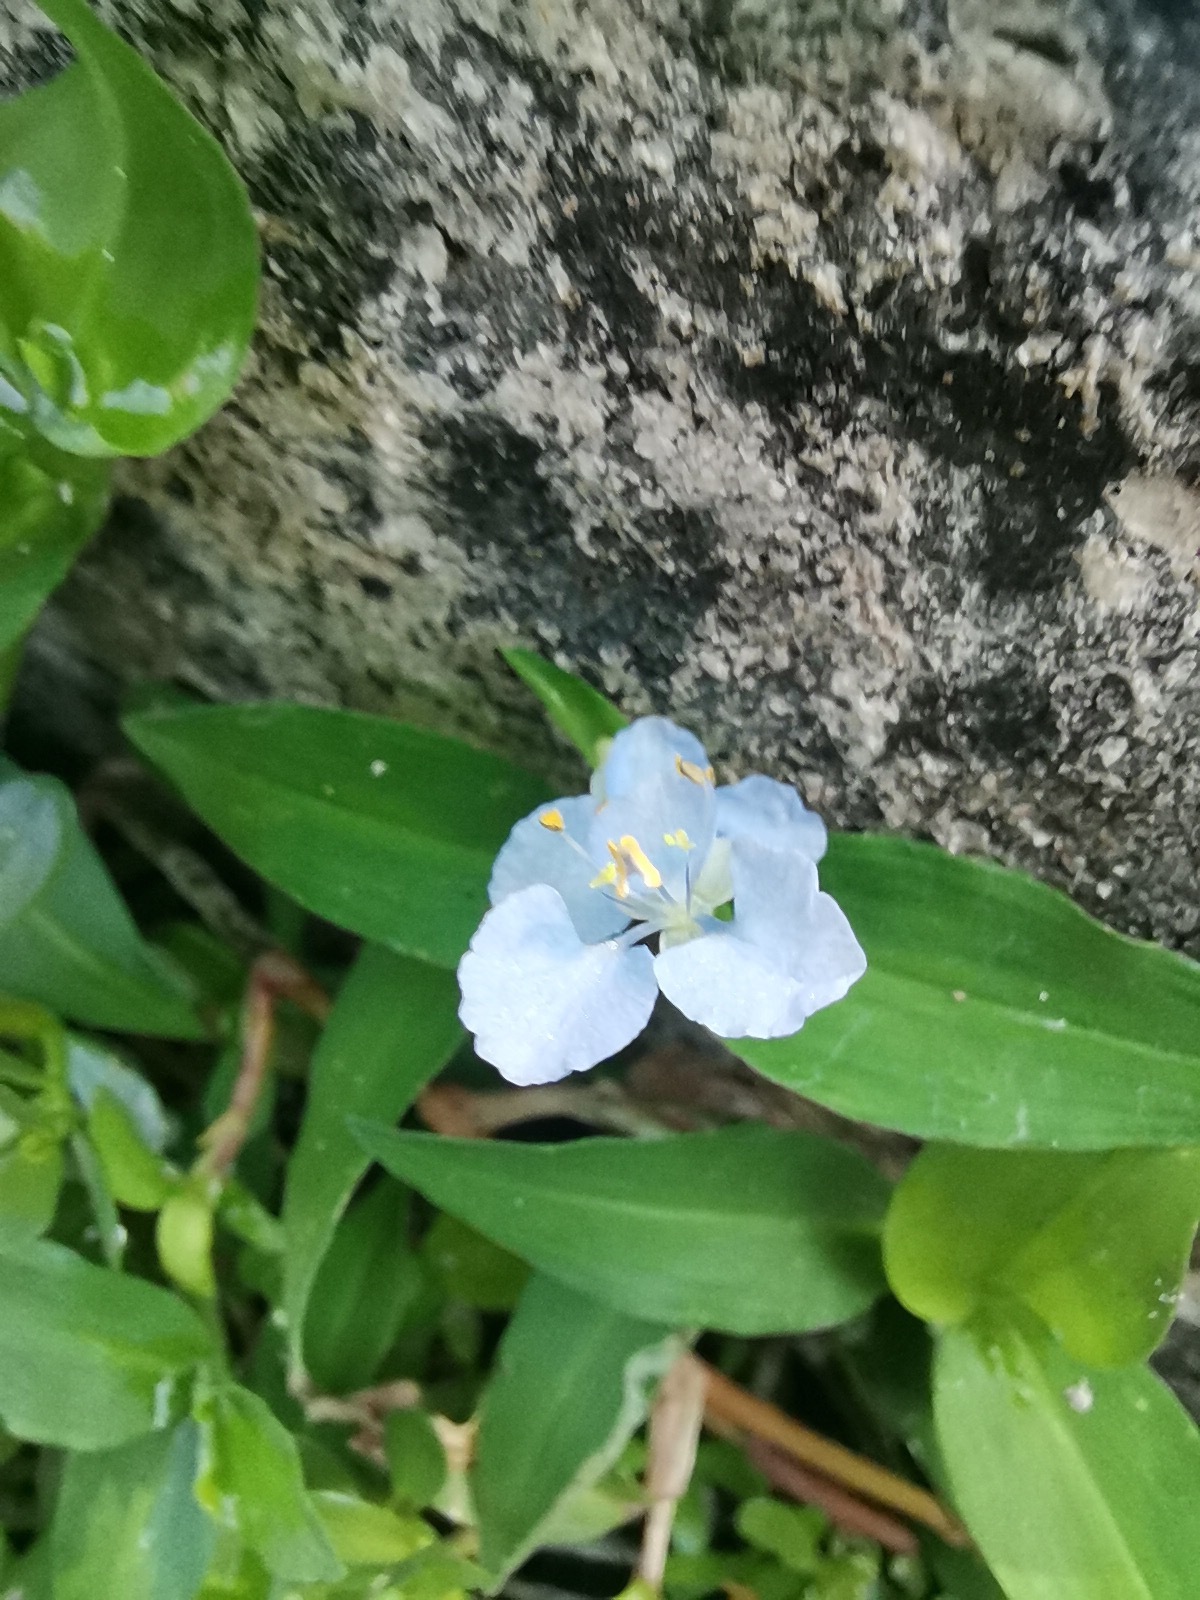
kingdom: Plantae
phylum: Tracheophyta
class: Liliopsida
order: Commelinales
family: Commelinaceae
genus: Commelina
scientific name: Commelina diffusa
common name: Climbing dayflower
